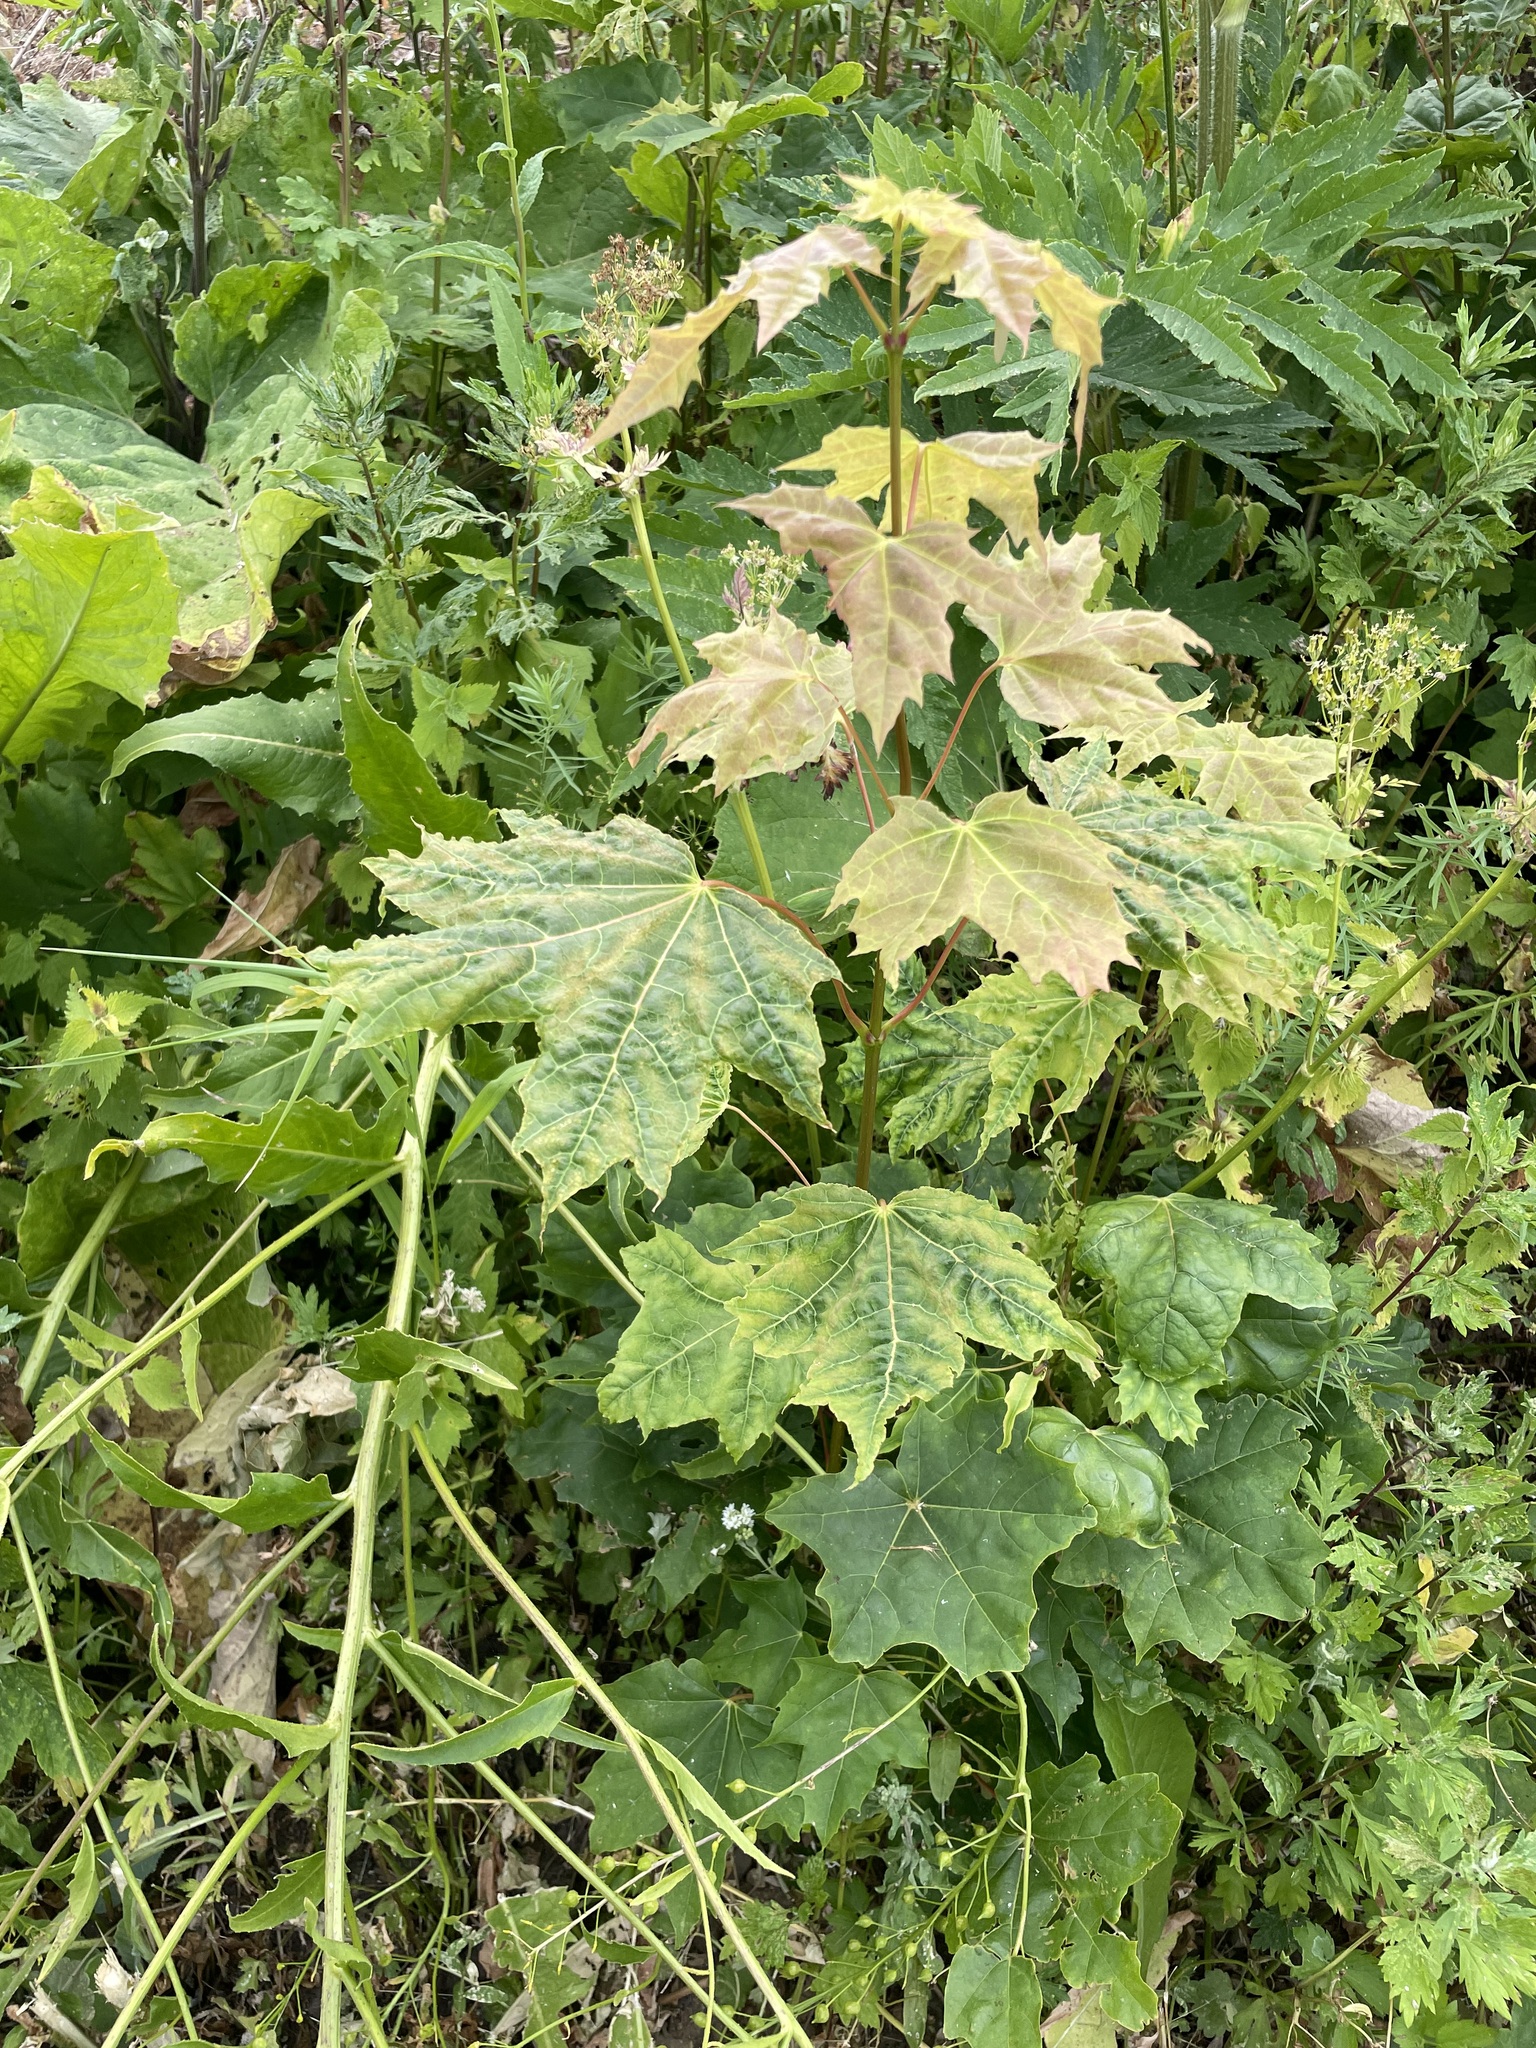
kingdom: Plantae
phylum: Tracheophyta
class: Magnoliopsida
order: Sapindales
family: Sapindaceae
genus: Acer
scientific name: Acer platanoides
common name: Norway maple
